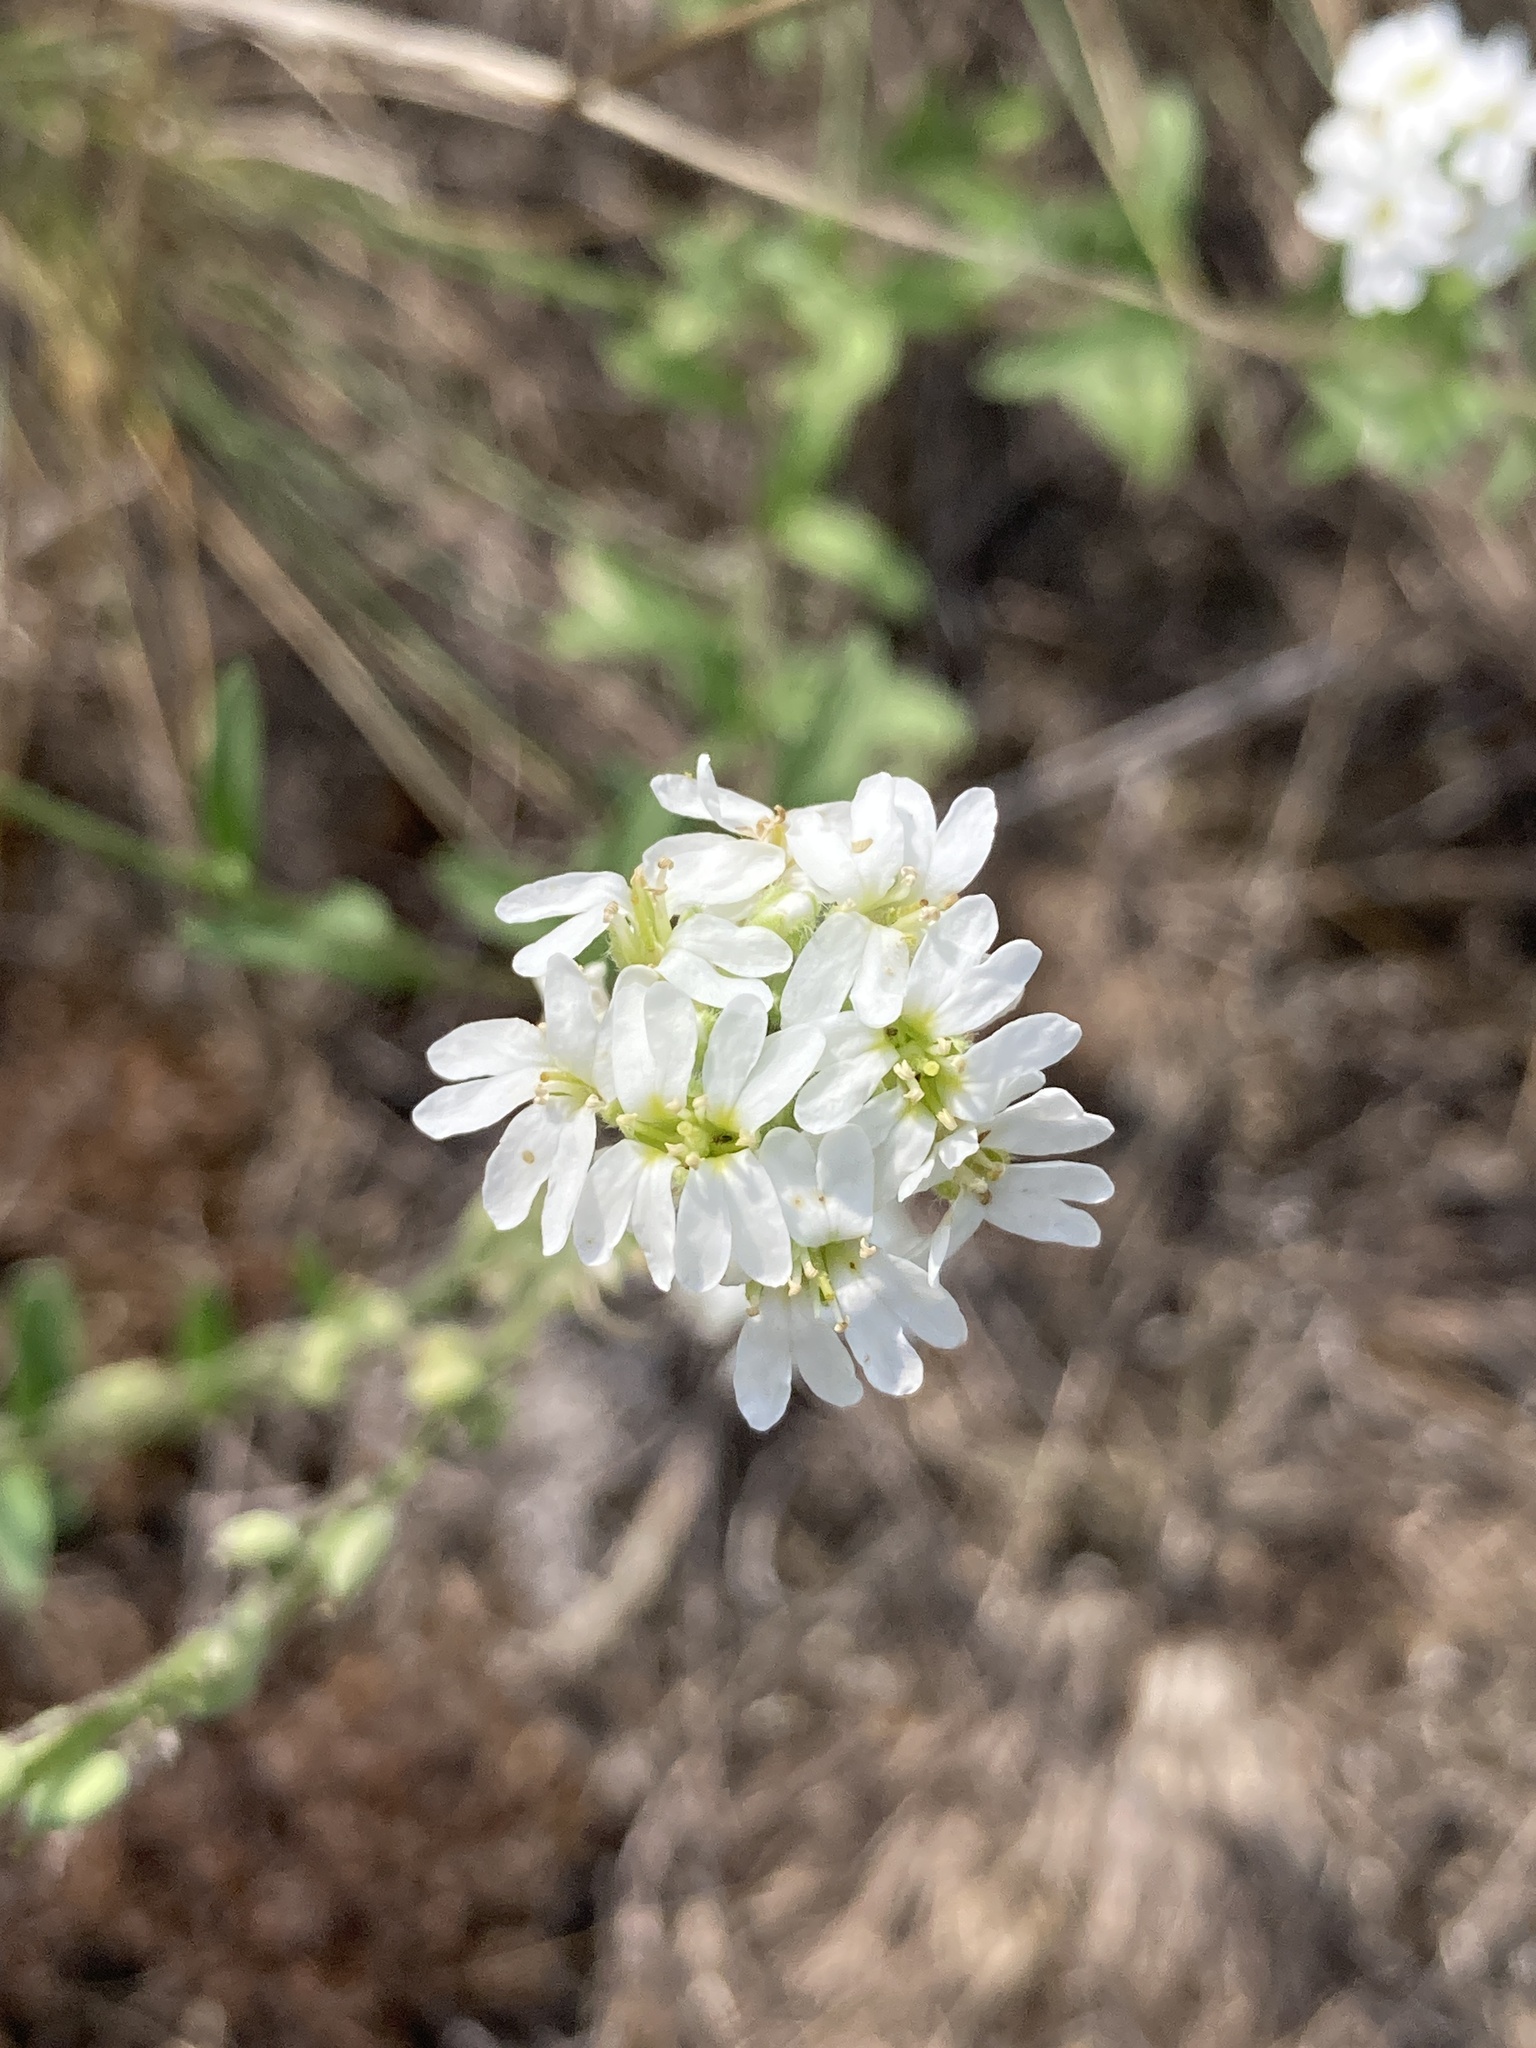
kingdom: Plantae
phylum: Tracheophyta
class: Magnoliopsida
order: Brassicales
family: Brassicaceae
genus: Berteroa
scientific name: Berteroa incana
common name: Hoary alison
